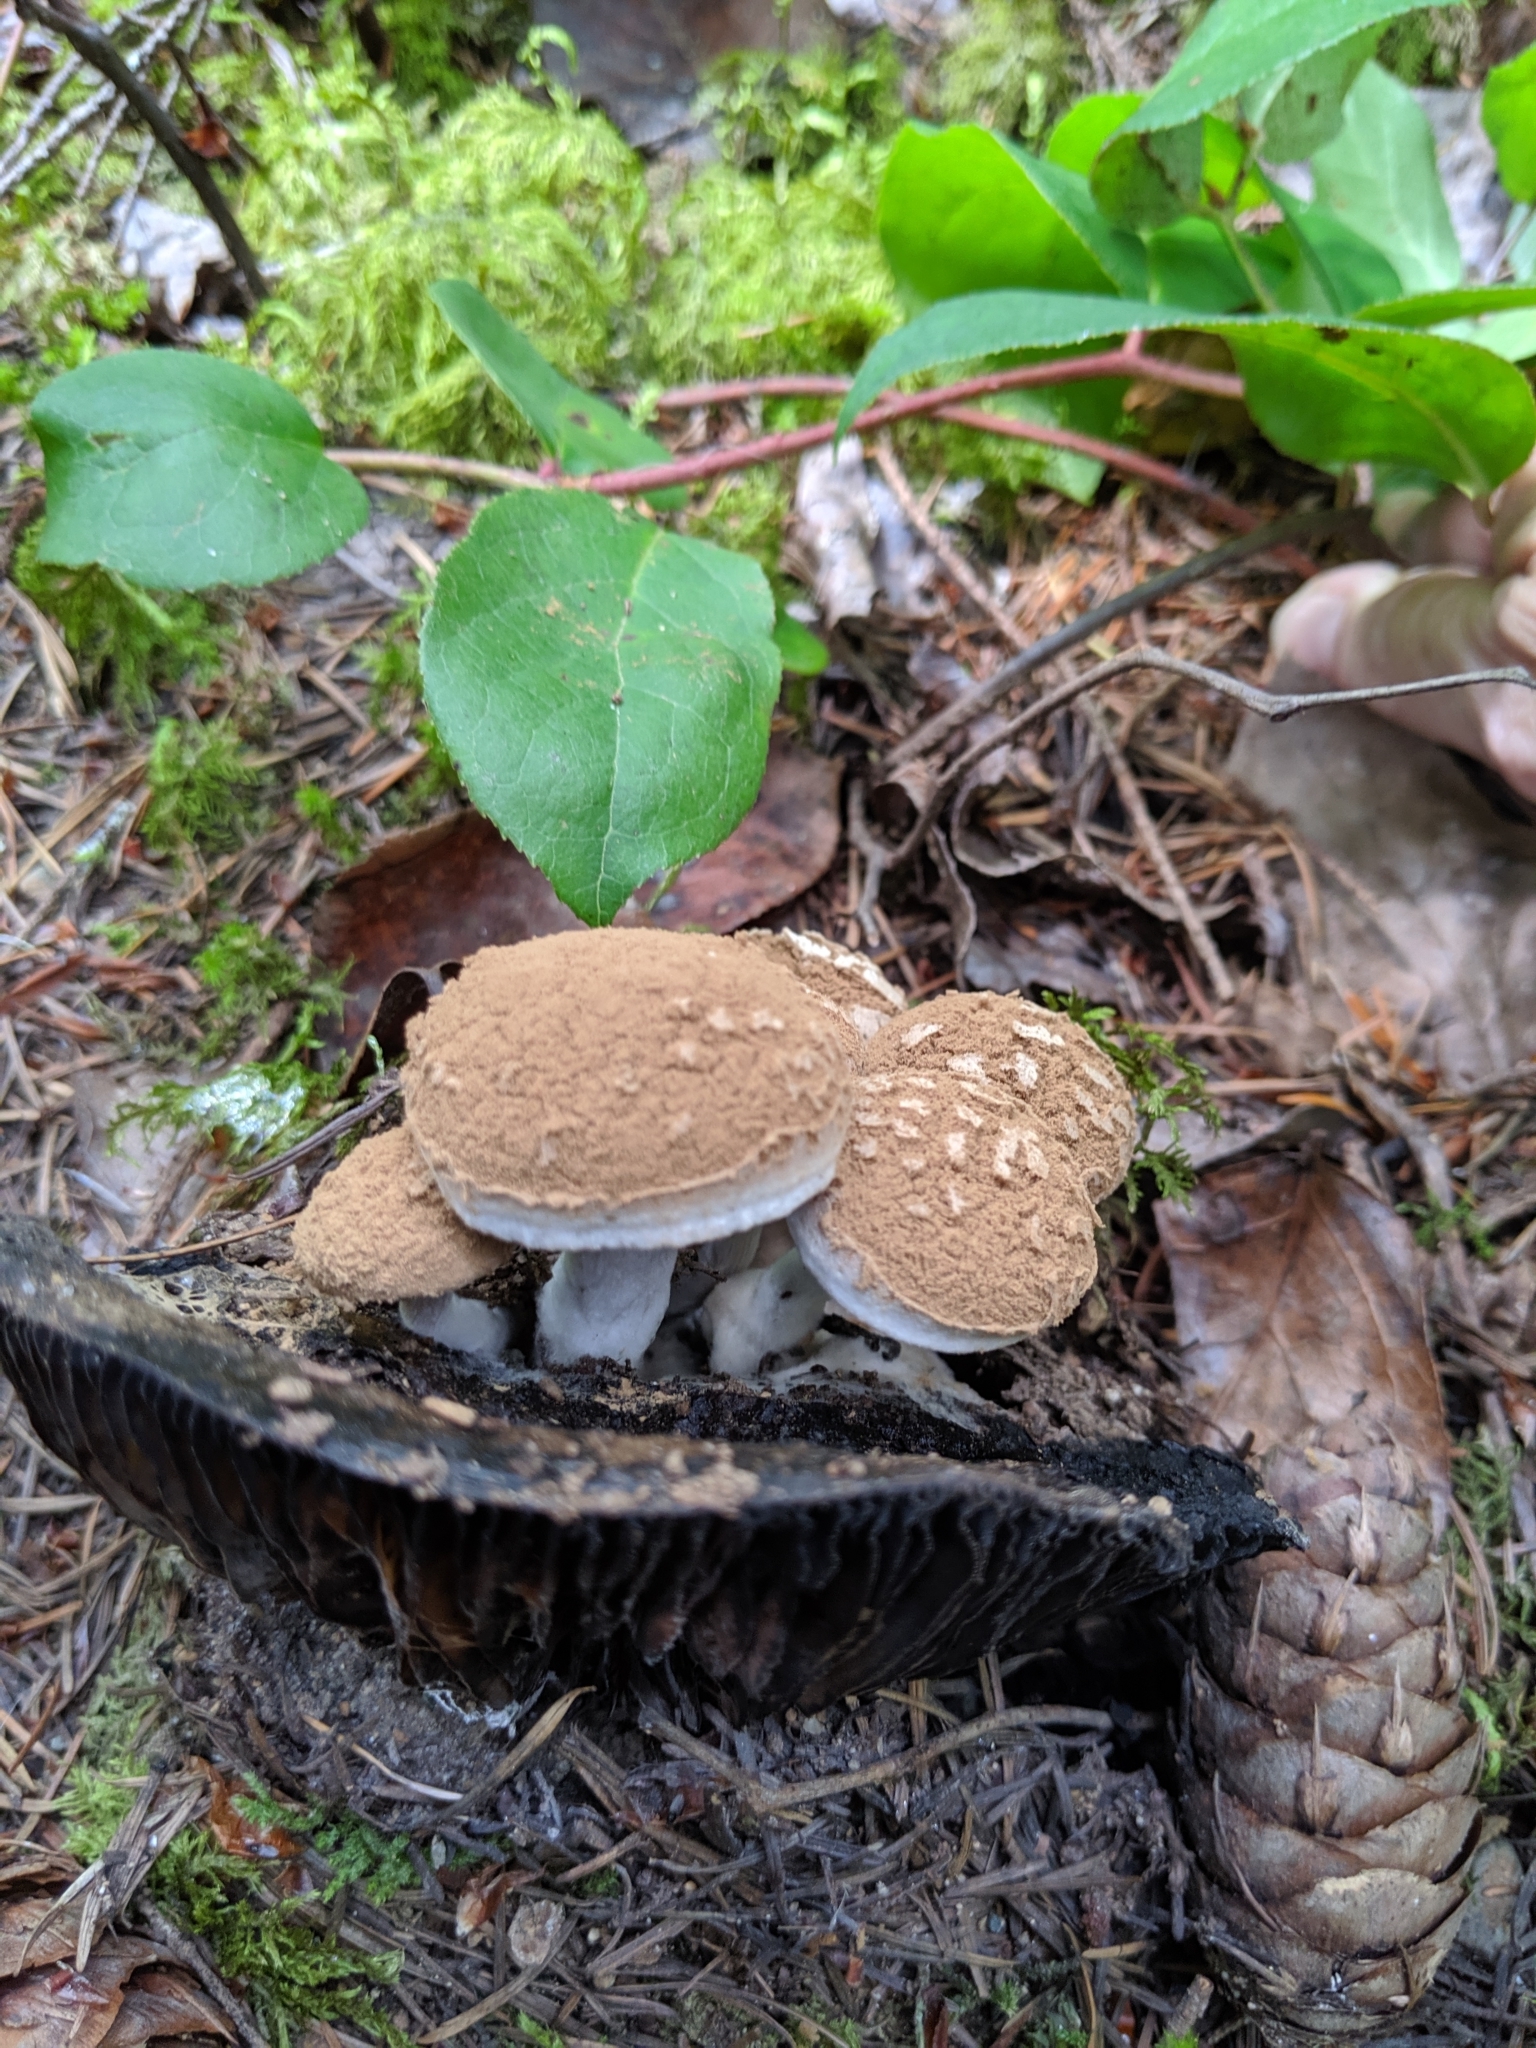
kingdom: Fungi
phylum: Basidiomycota
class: Agaricomycetes
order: Agaricales
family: Lyophyllaceae
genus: Asterophora
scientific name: Asterophora lycoperdoides
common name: Pick-a-back toadstool
